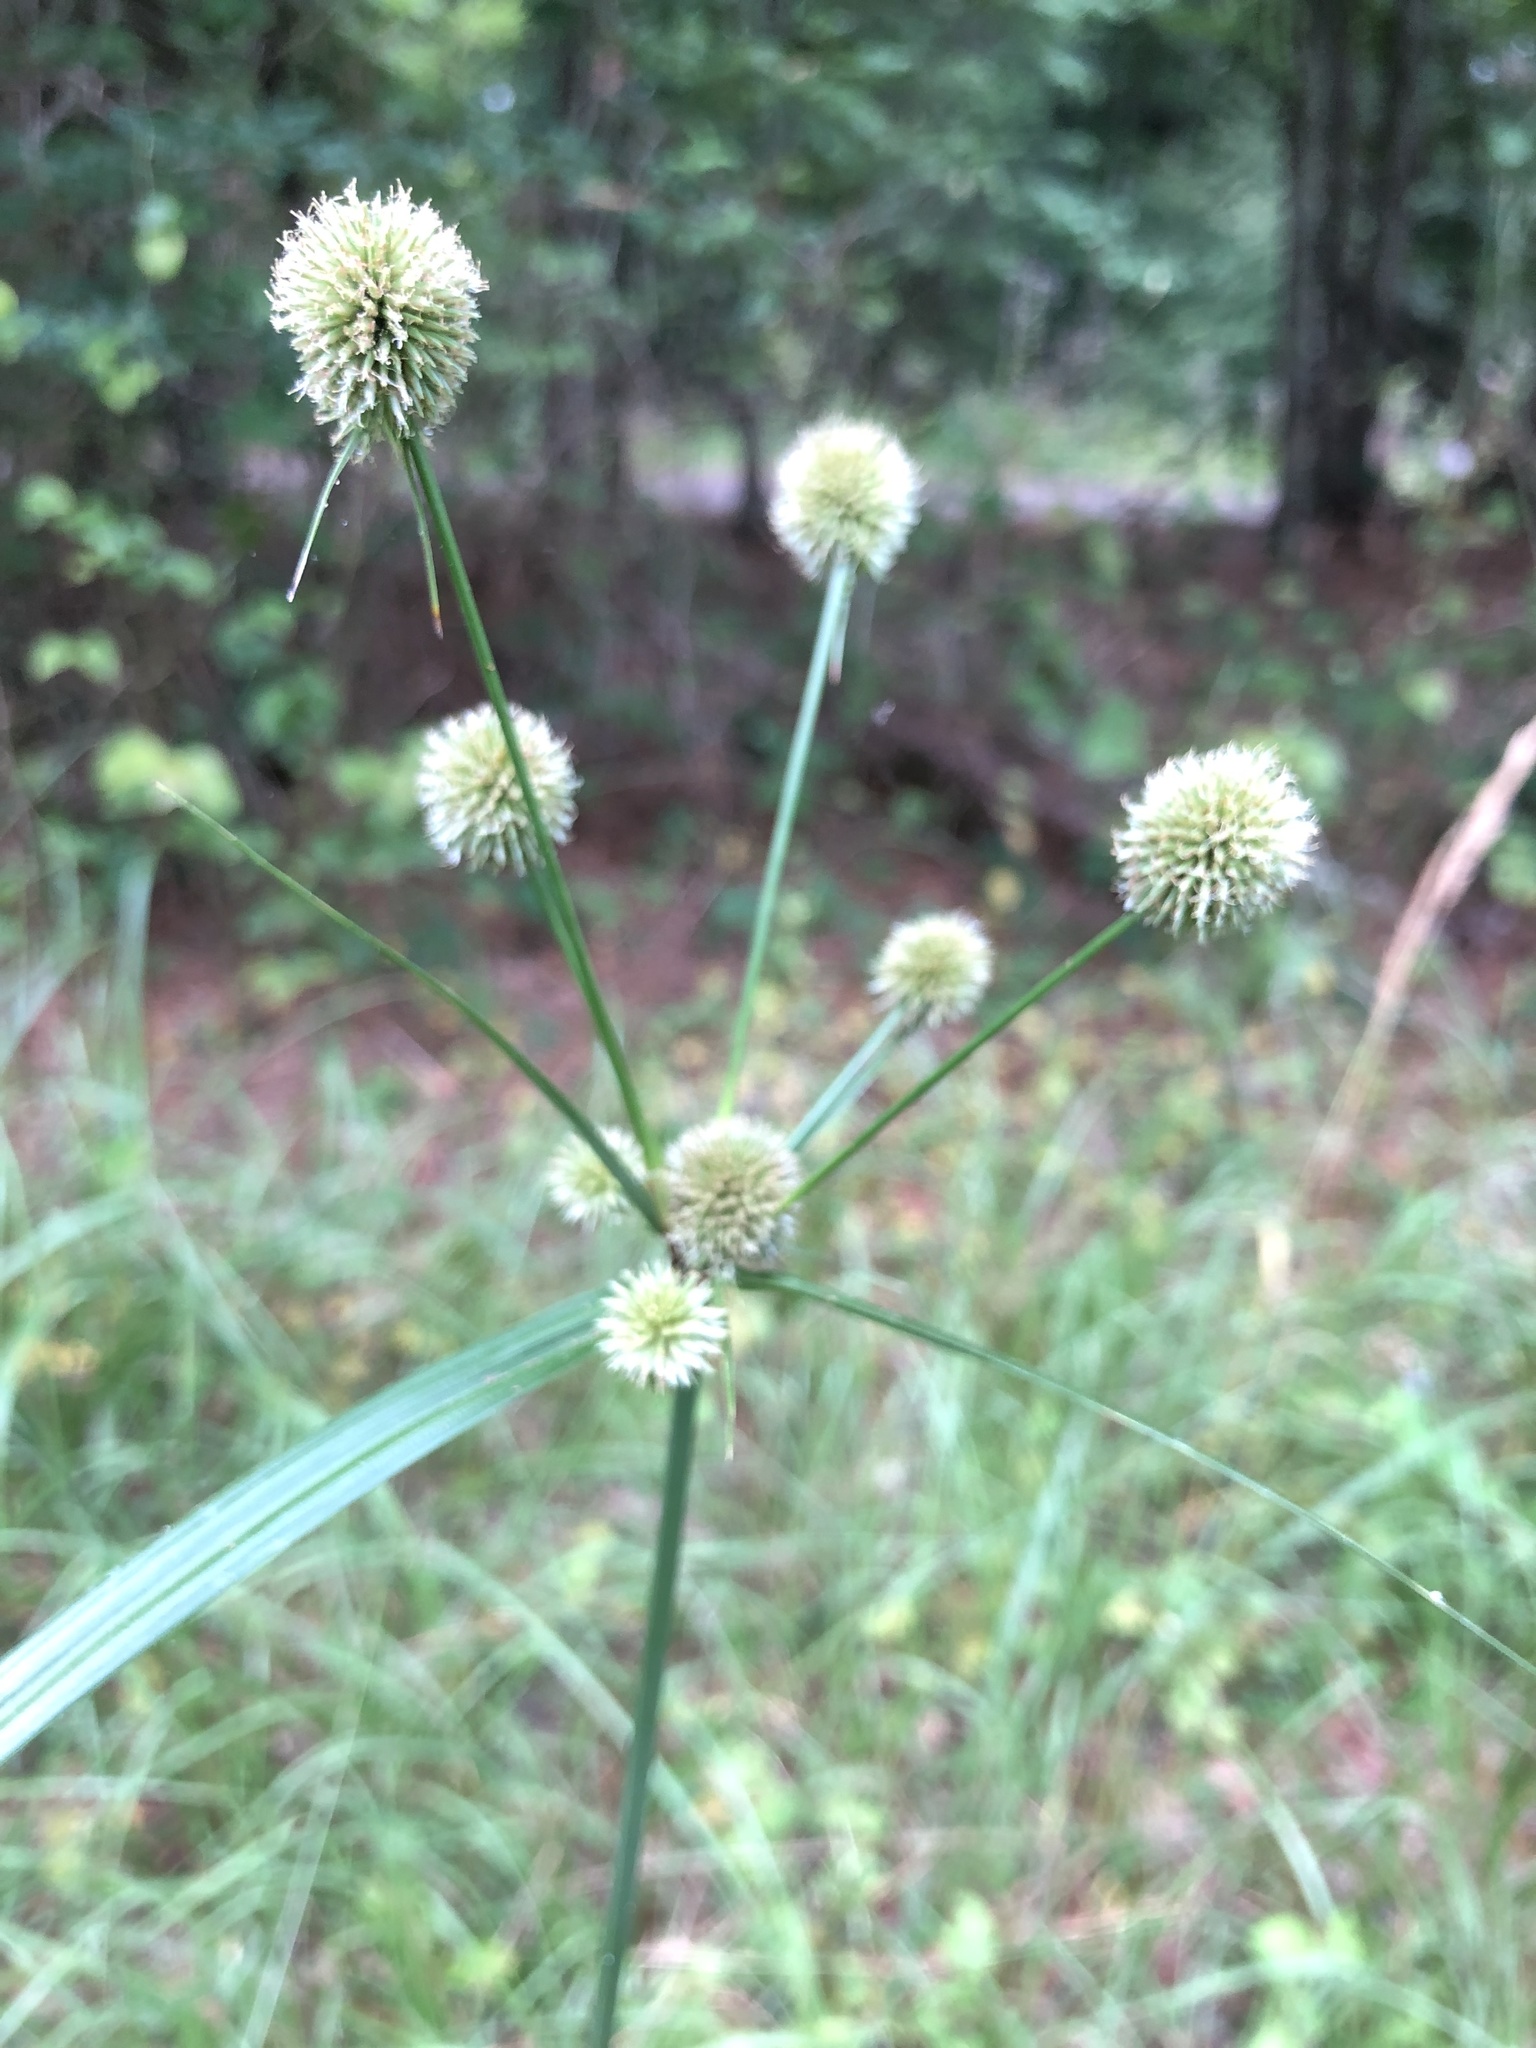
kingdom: Plantae
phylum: Tracheophyta
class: Liliopsida
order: Poales
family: Cyperaceae
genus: Cyperus
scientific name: Cyperus echinatus
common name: Teasel sedge
